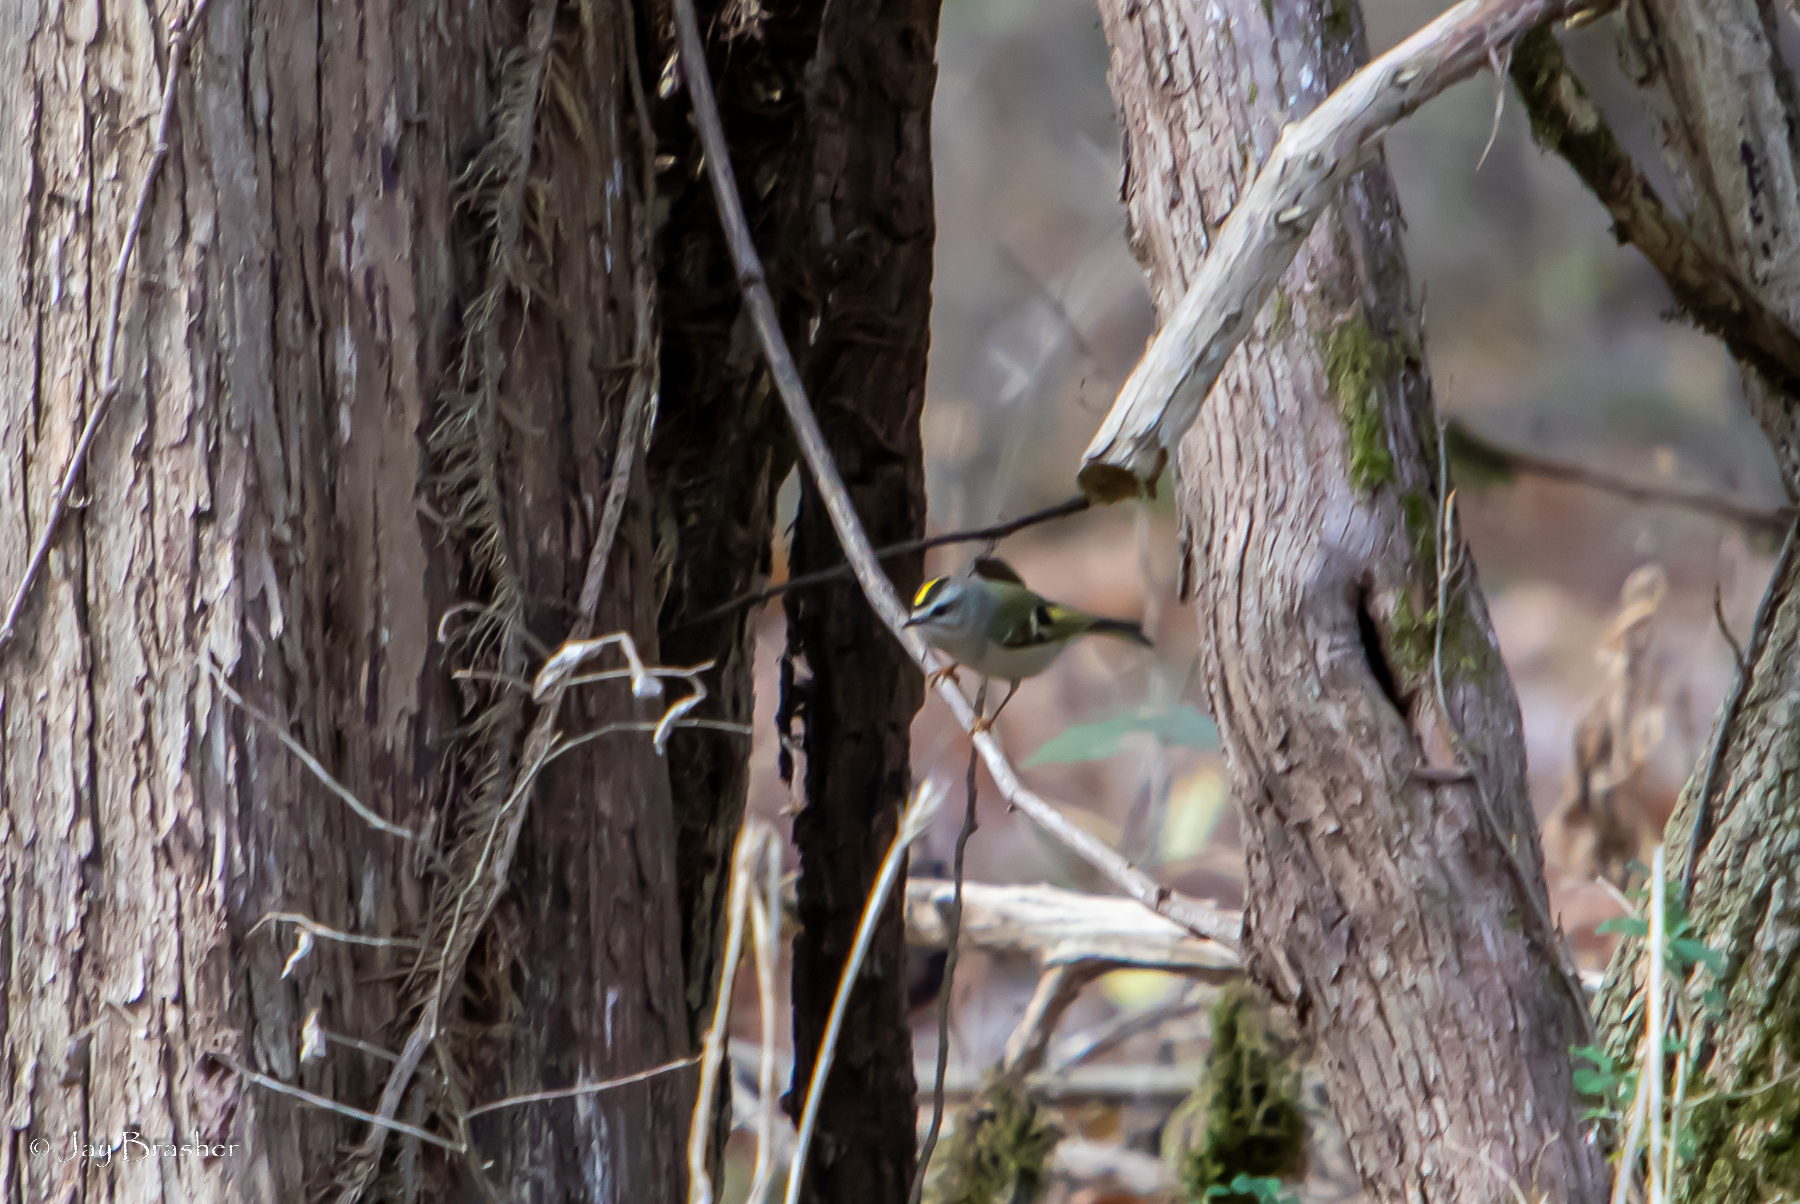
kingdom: Animalia
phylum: Chordata
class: Aves
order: Passeriformes
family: Regulidae
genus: Regulus
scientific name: Regulus satrapa
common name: Golden-crowned kinglet
